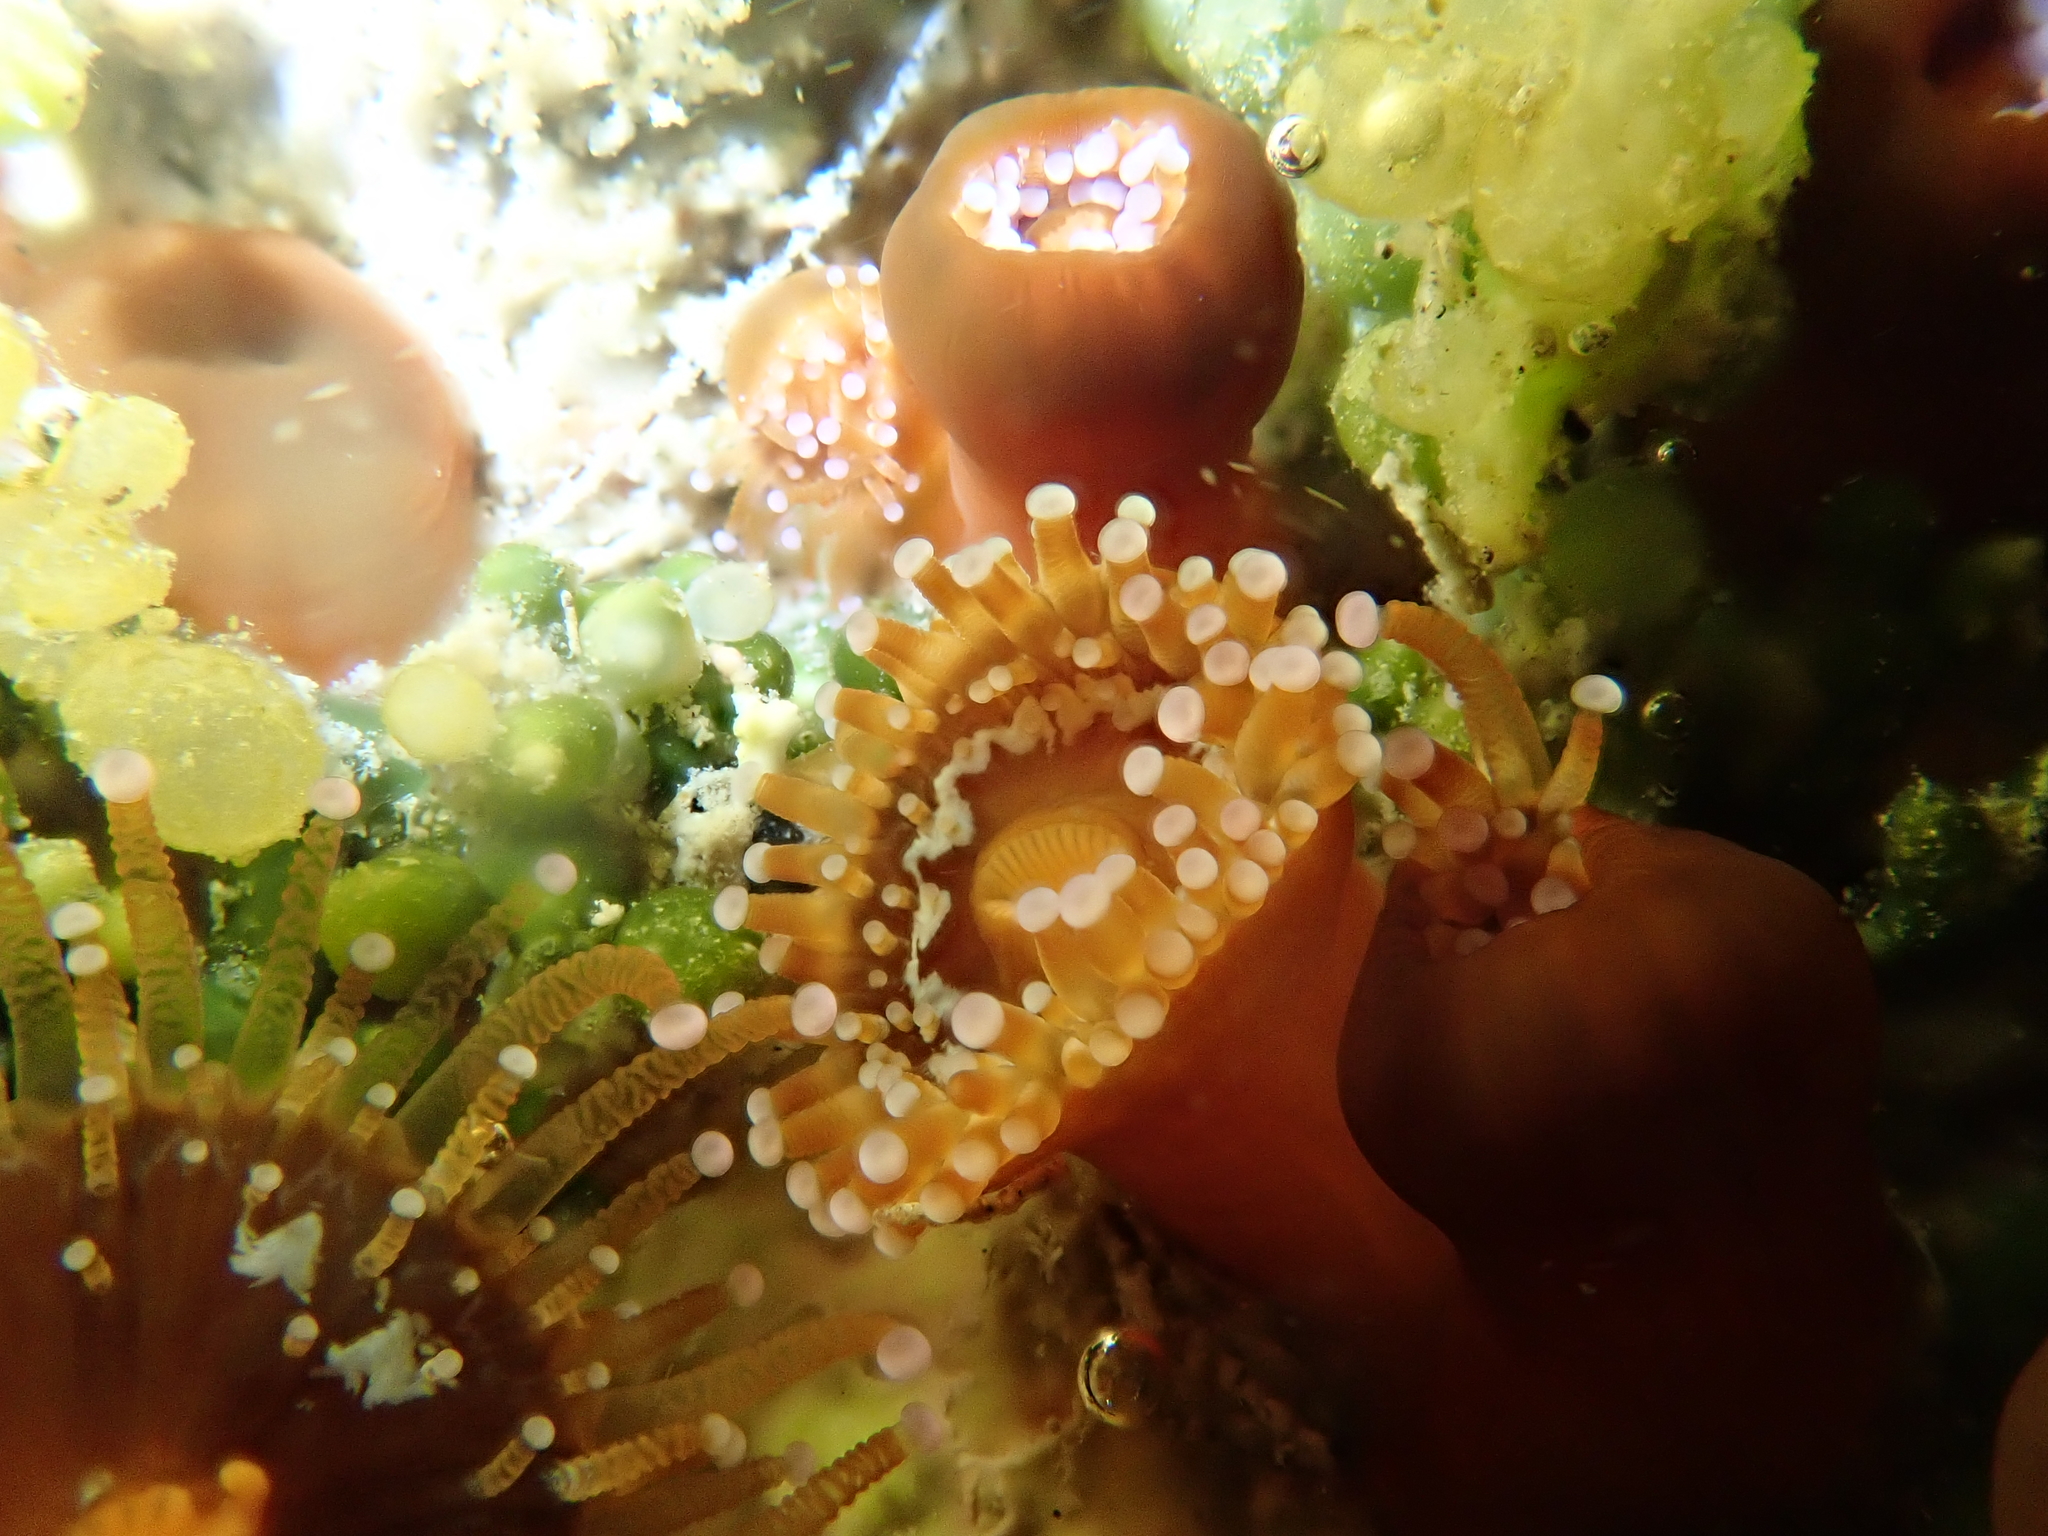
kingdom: Animalia
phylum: Cnidaria
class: Anthozoa
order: Corallimorpharia
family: Corallimorphidae
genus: Corynactis
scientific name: Corynactis australis
